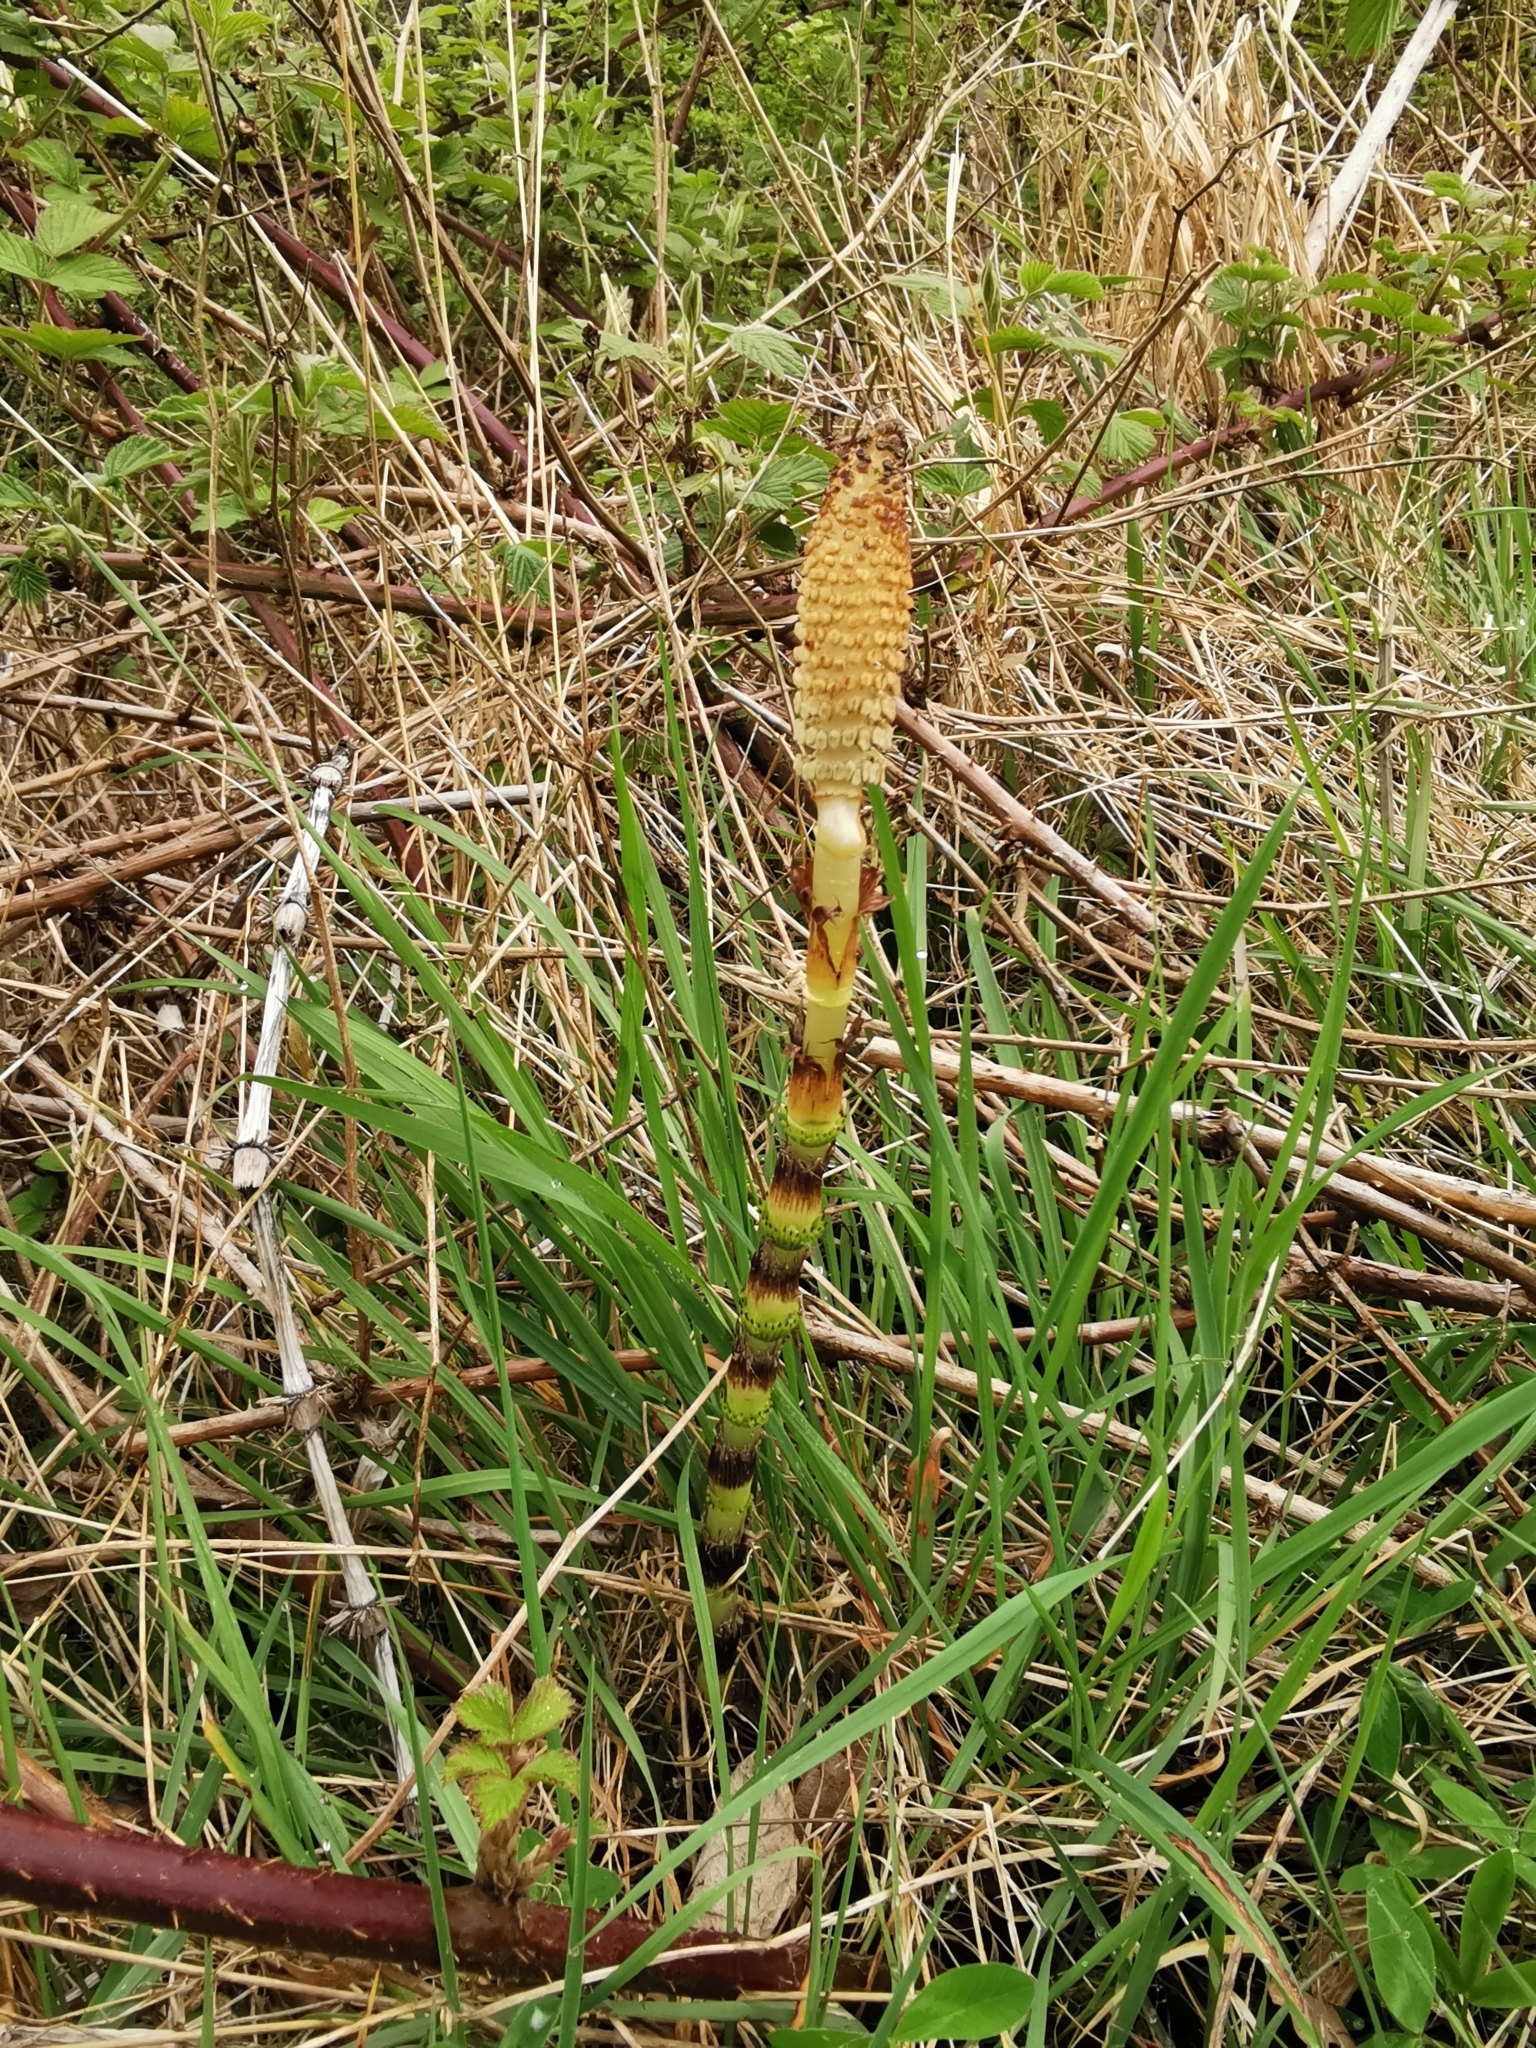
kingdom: Plantae
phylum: Tracheophyta
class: Polypodiopsida
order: Equisetales
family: Equisetaceae
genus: Equisetum
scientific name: Equisetum telmateia
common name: Great horsetail
